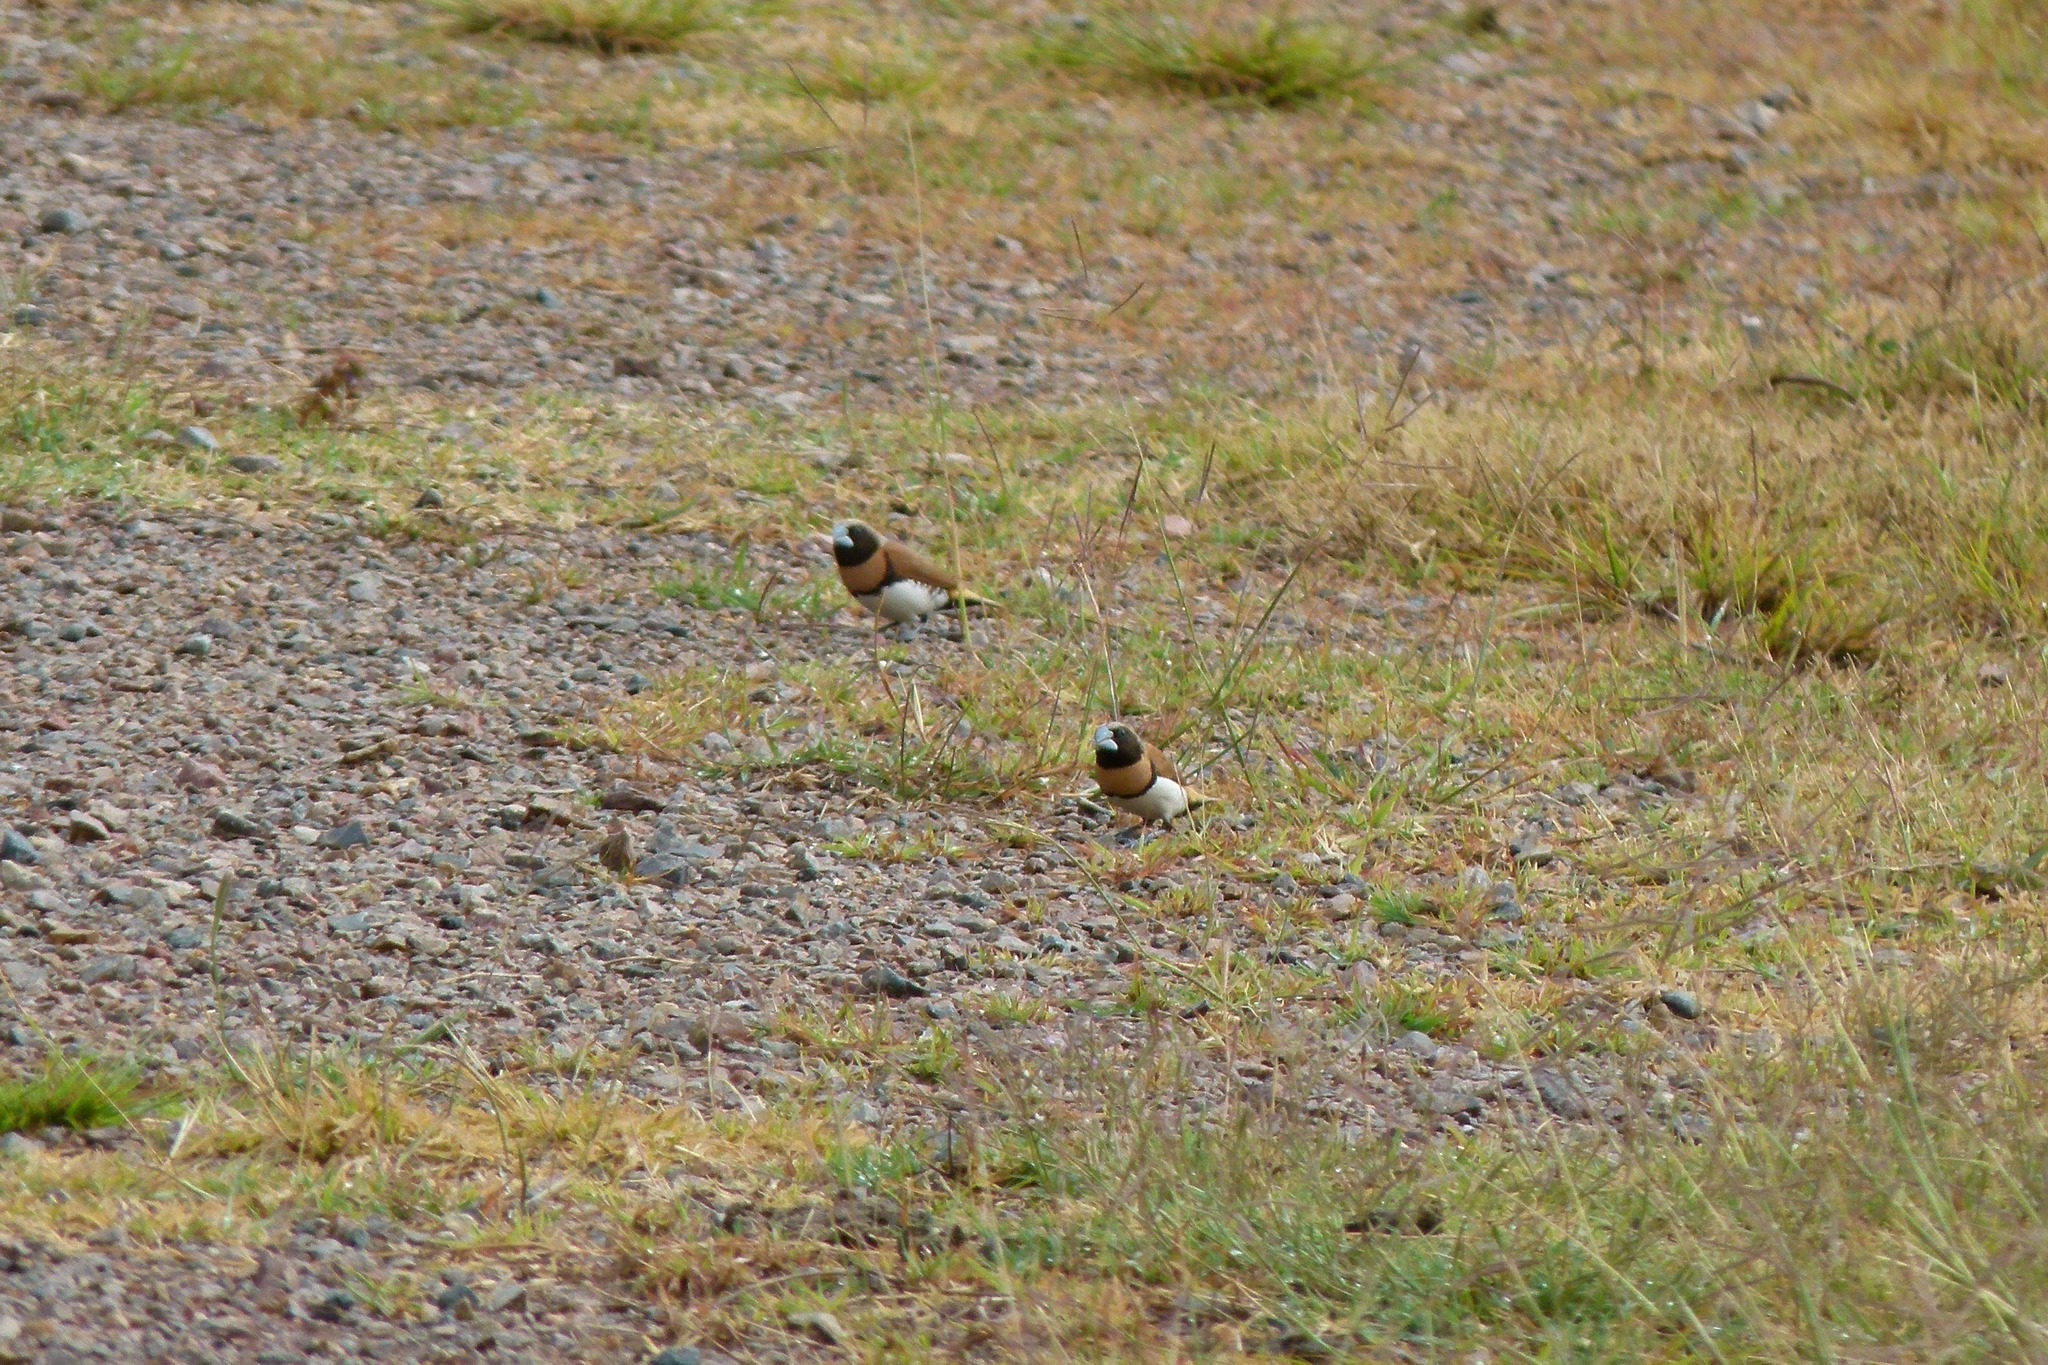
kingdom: Animalia
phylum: Chordata
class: Aves
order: Passeriformes
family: Estrildidae
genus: Lonchura
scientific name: Lonchura castaneothorax
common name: Chestnut-breasted mannikin
